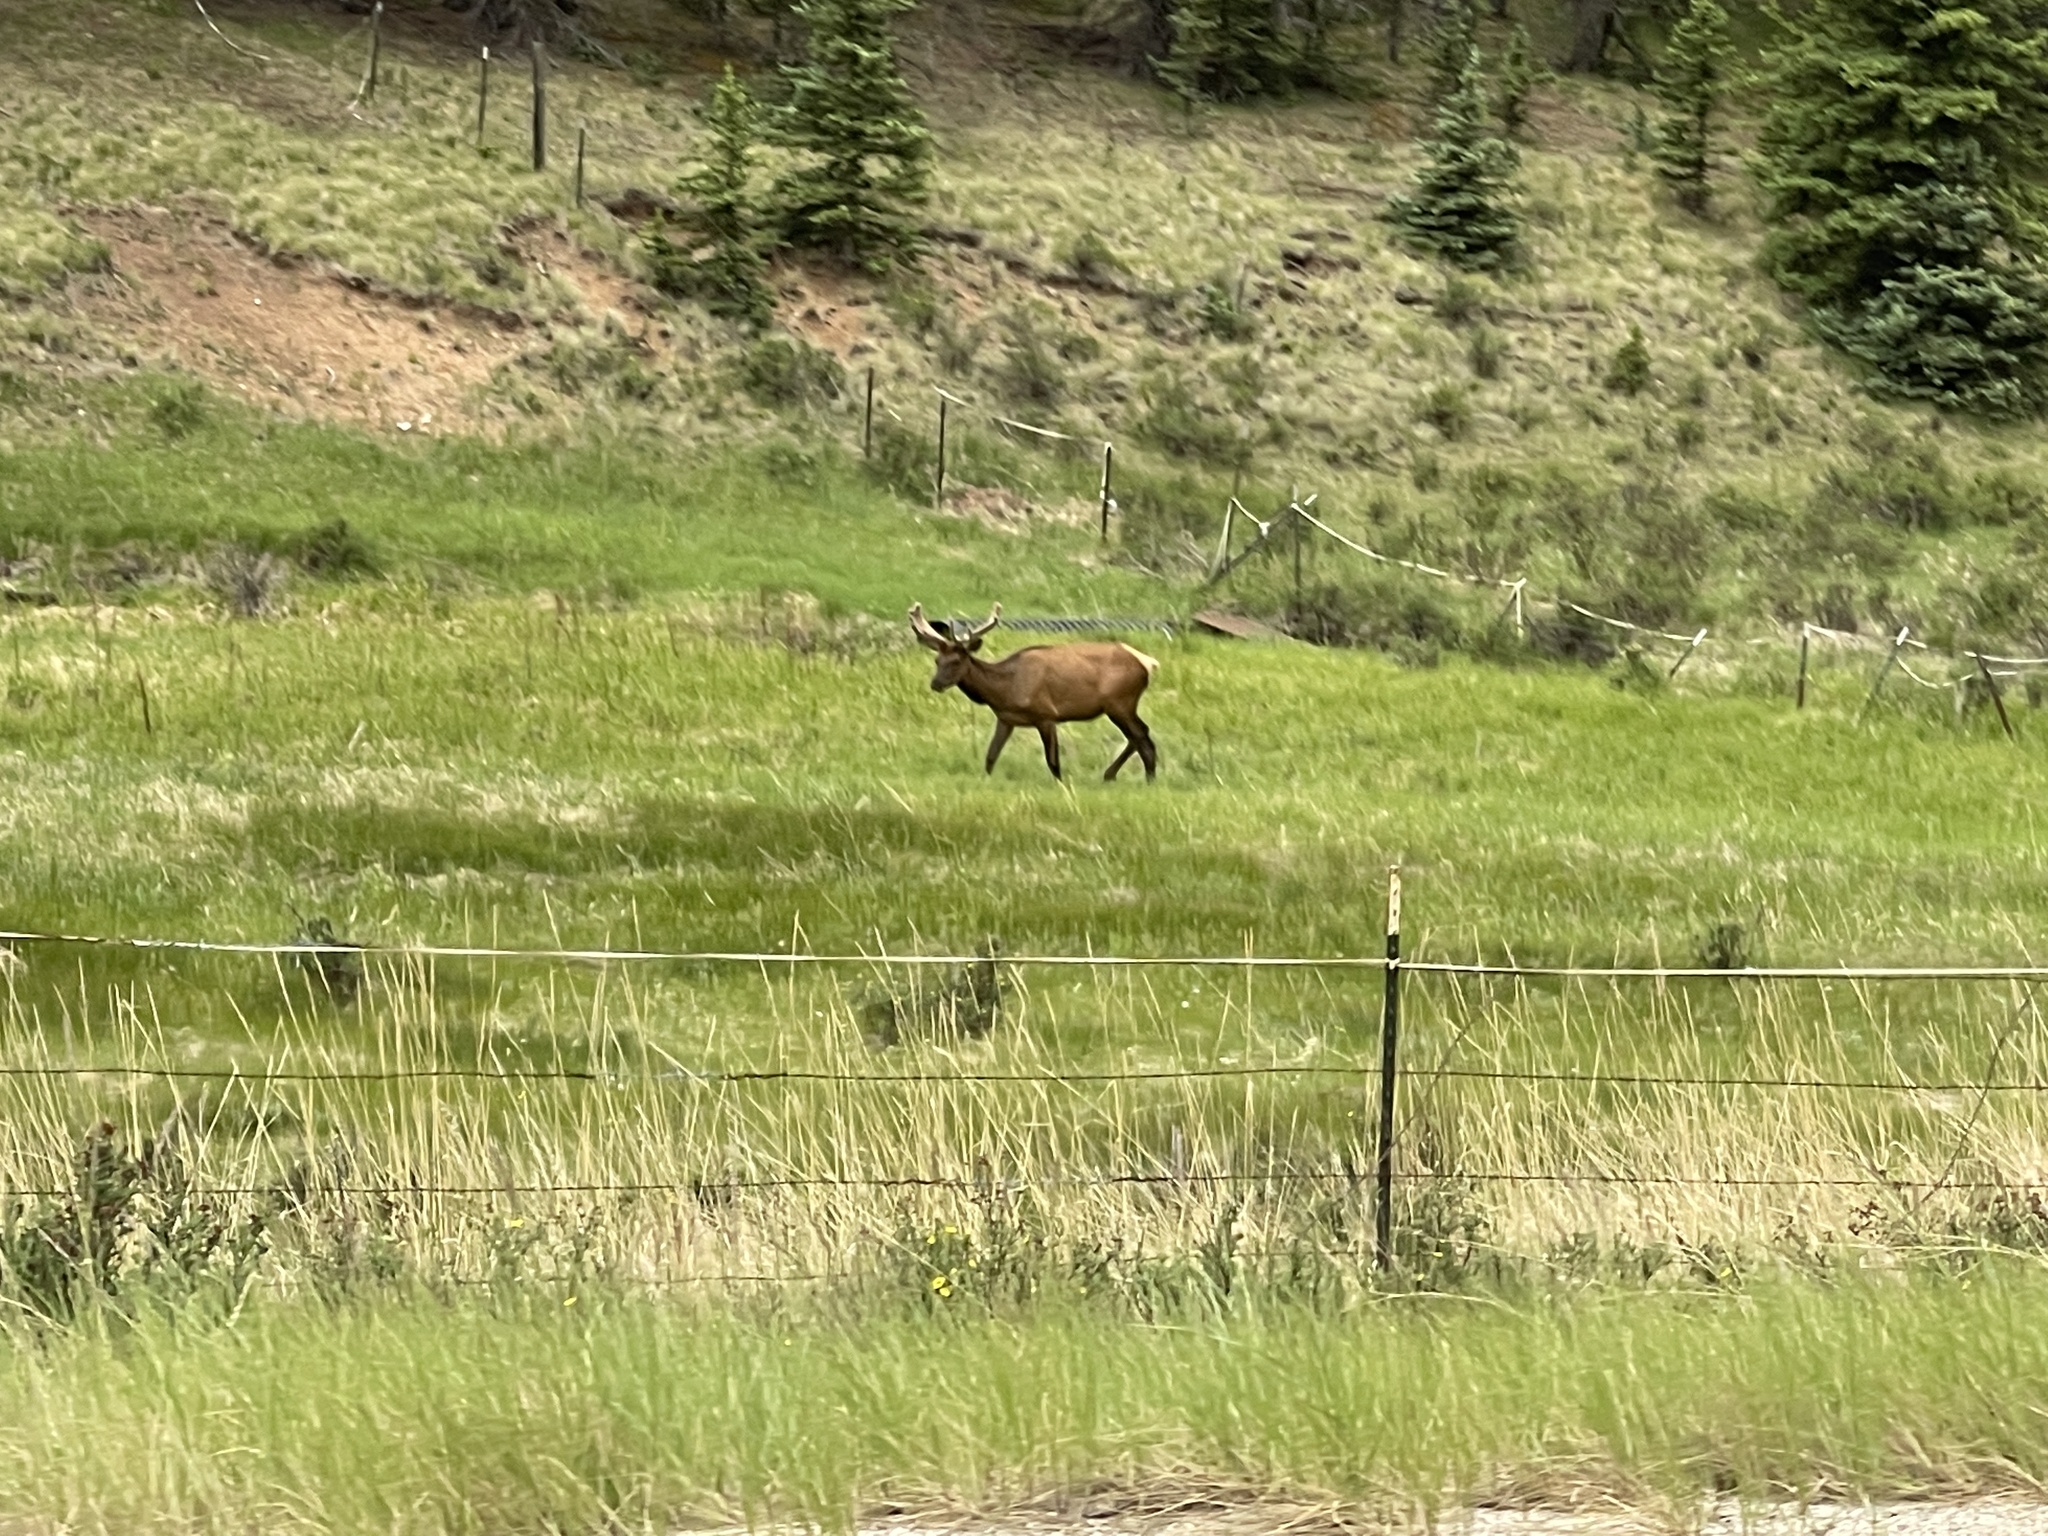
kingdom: Animalia
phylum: Chordata
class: Mammalia
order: Artiodactyla
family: Cervidae
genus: Cervus
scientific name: Cervus elaphus
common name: Red deer
